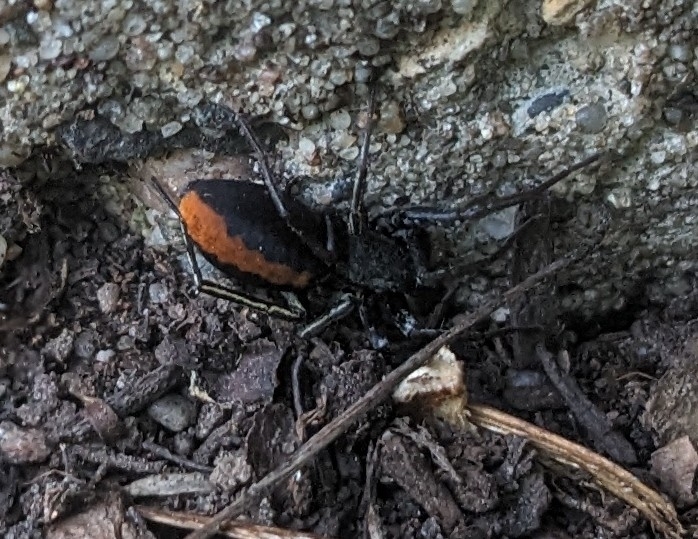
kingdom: Animalia
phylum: Arthropoda
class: Arachnida
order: Araneae
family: Corinnidae
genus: Castianeira
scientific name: Castianeira descripta
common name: Red-spotted ant-mimic sac spider
